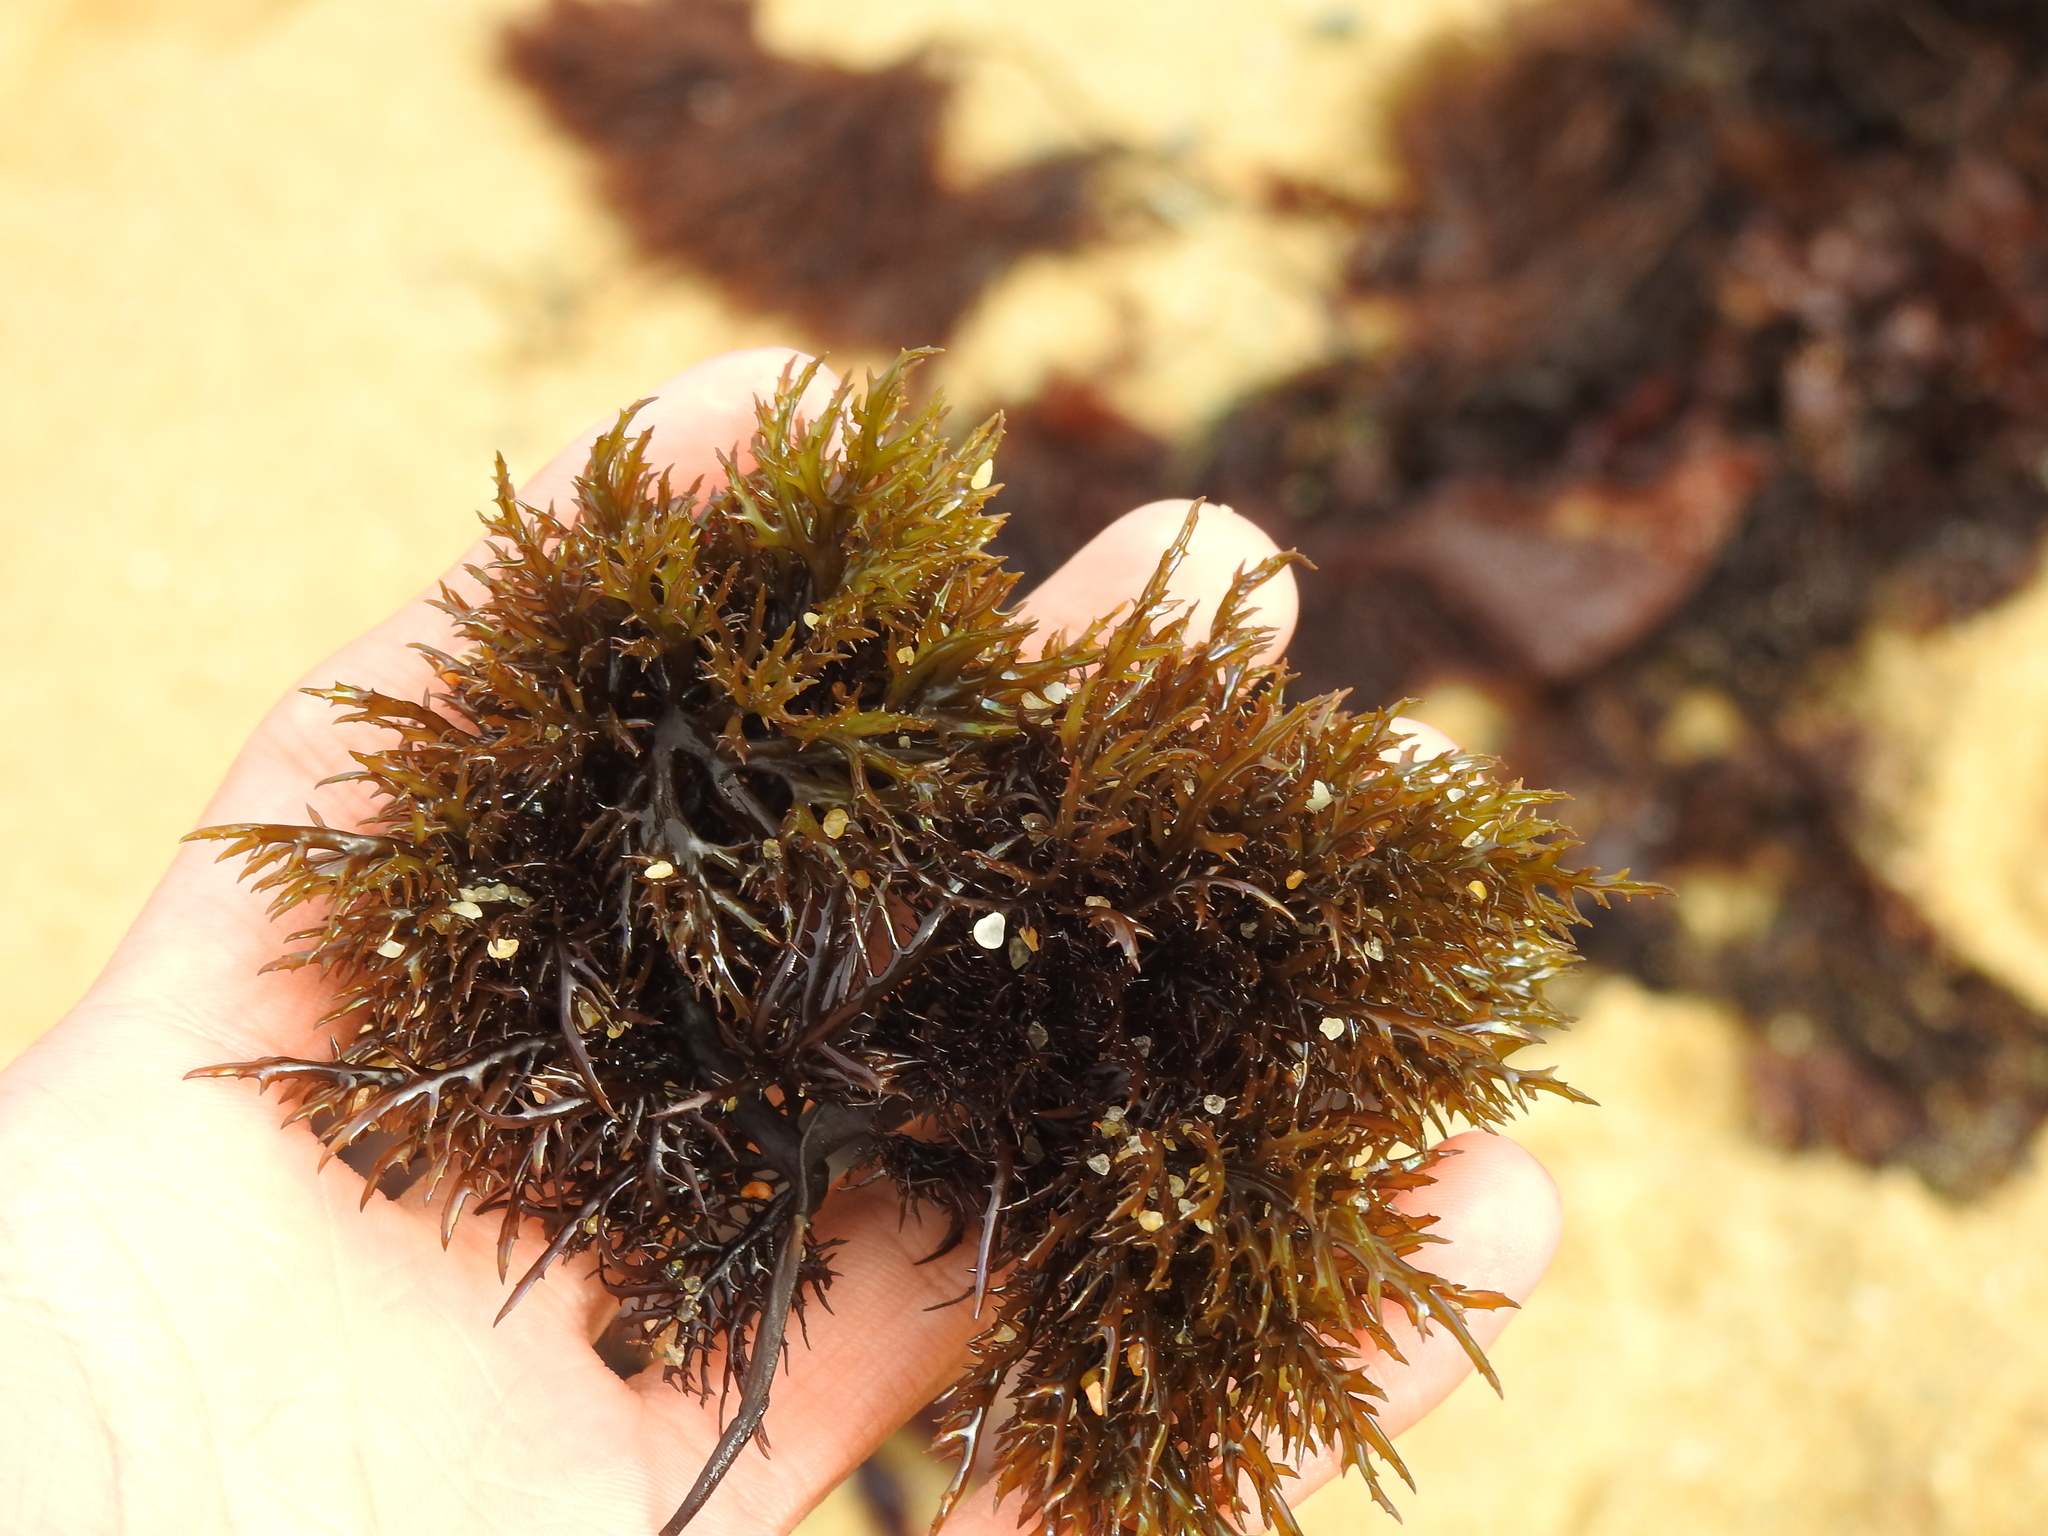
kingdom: Plantae
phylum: Rhodophyta
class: Florideophyceae
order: Gigartinales
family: Gigartinaceae
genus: Chondracanthus
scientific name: Chondracanthus canaliculatus
